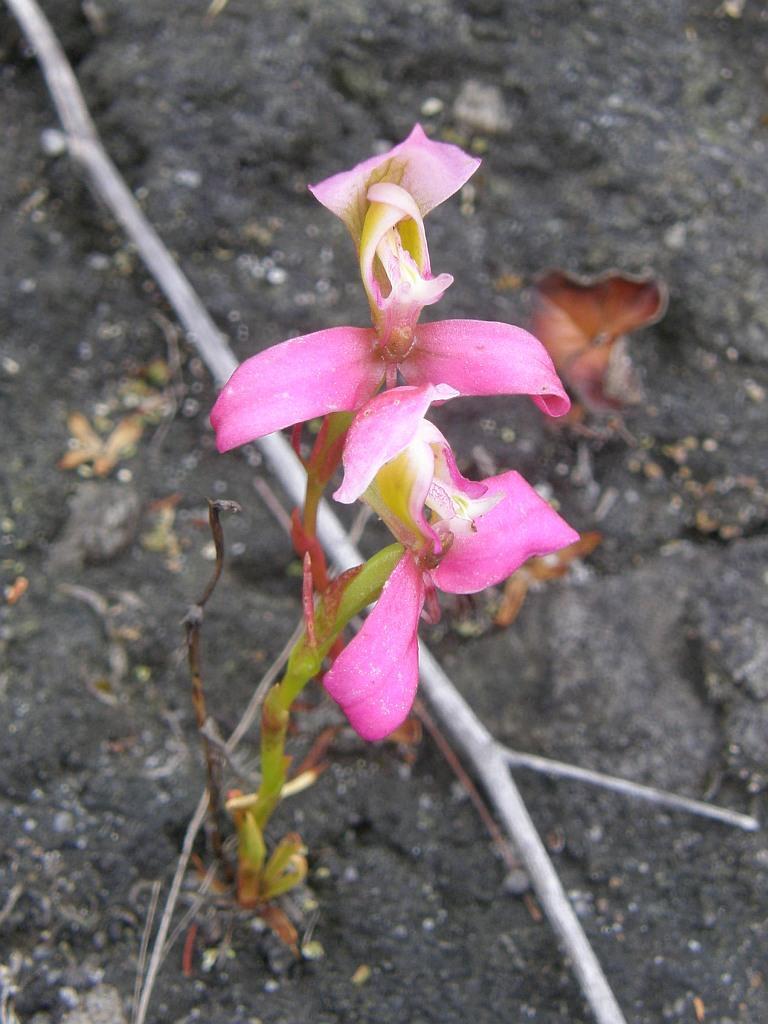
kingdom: Plantae
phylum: Tracheophyta
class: Liliopsida
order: Asparagales
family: Orchidaceae
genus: Disa
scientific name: Disa filicornis
